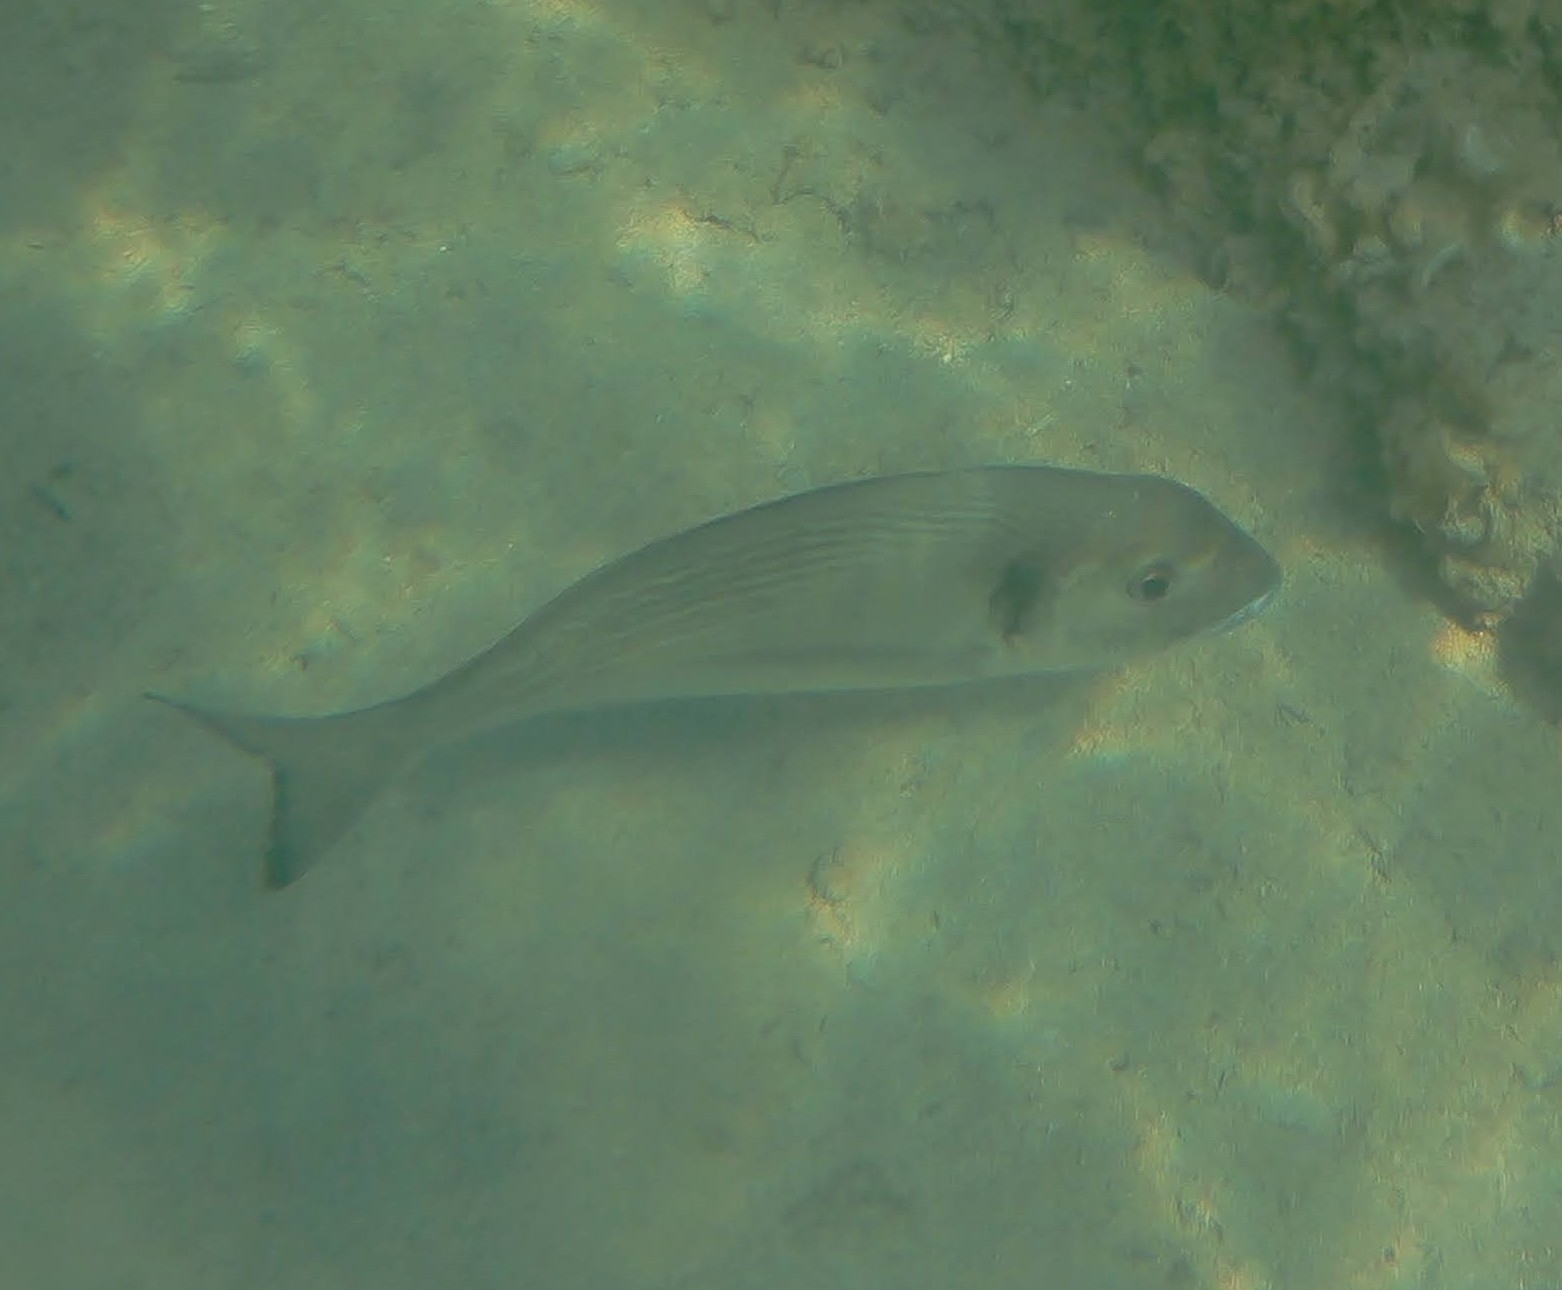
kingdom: Animalia
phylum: Chordata
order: Perciformes
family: Sparidae
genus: Sparus
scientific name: Sparus aurata
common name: Gilthead
